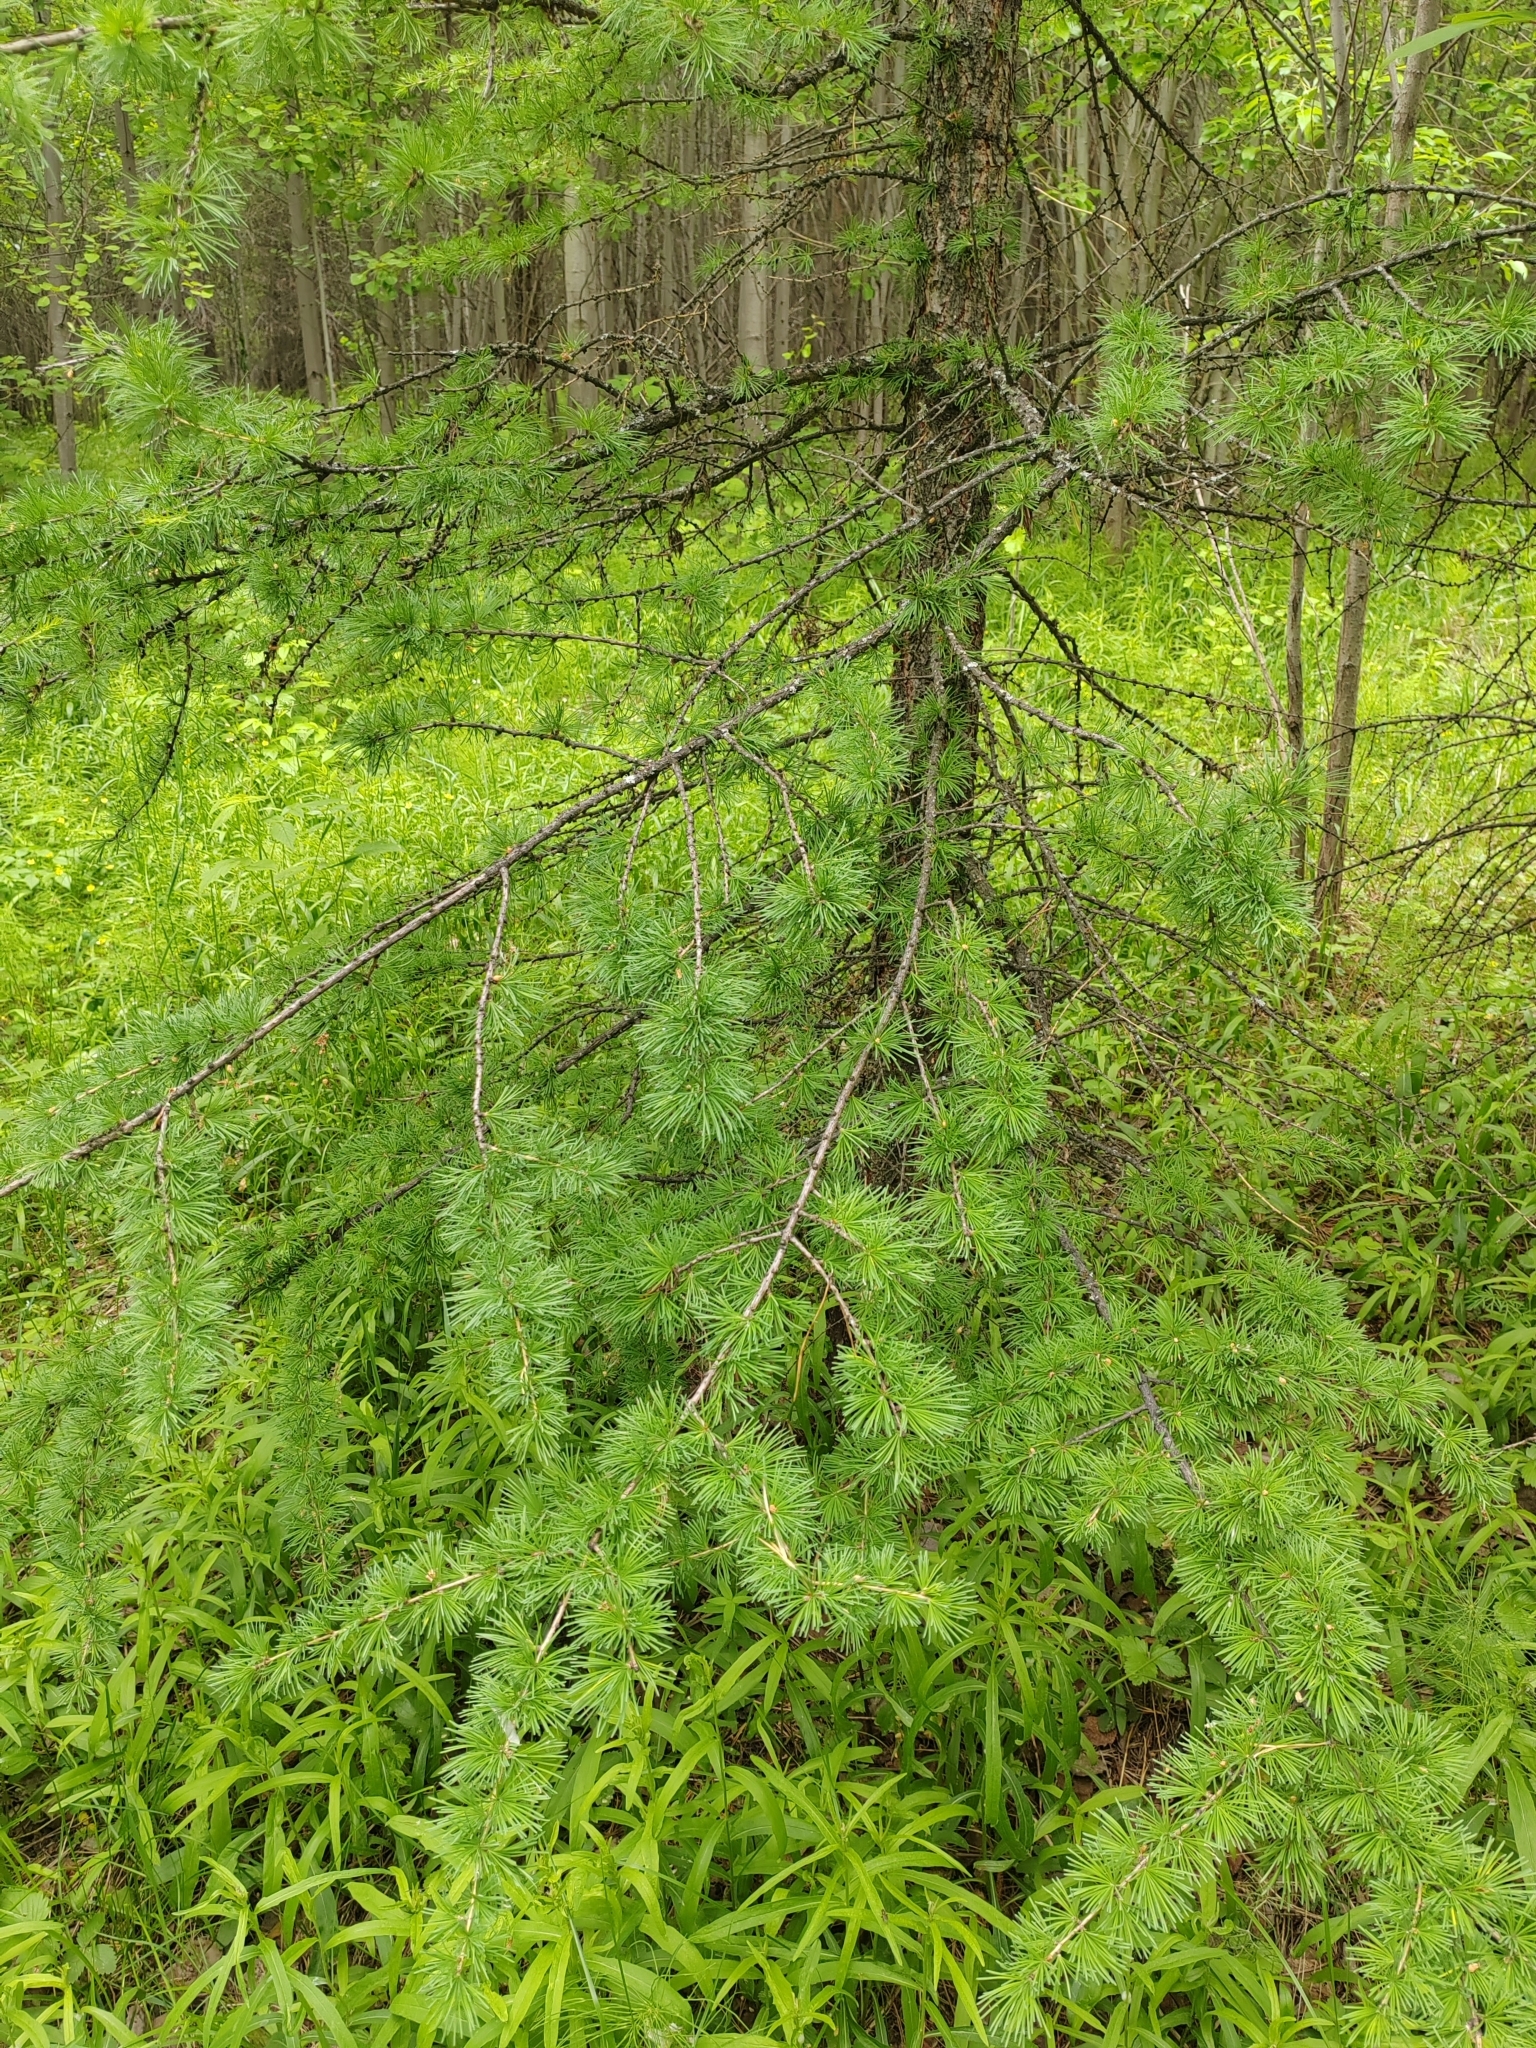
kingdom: Plantae
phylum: Tracheophyta
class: Pinopsida
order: Pinales
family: Pinaceae
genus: Larix
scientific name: Larix sibirica
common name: Siberian larch
